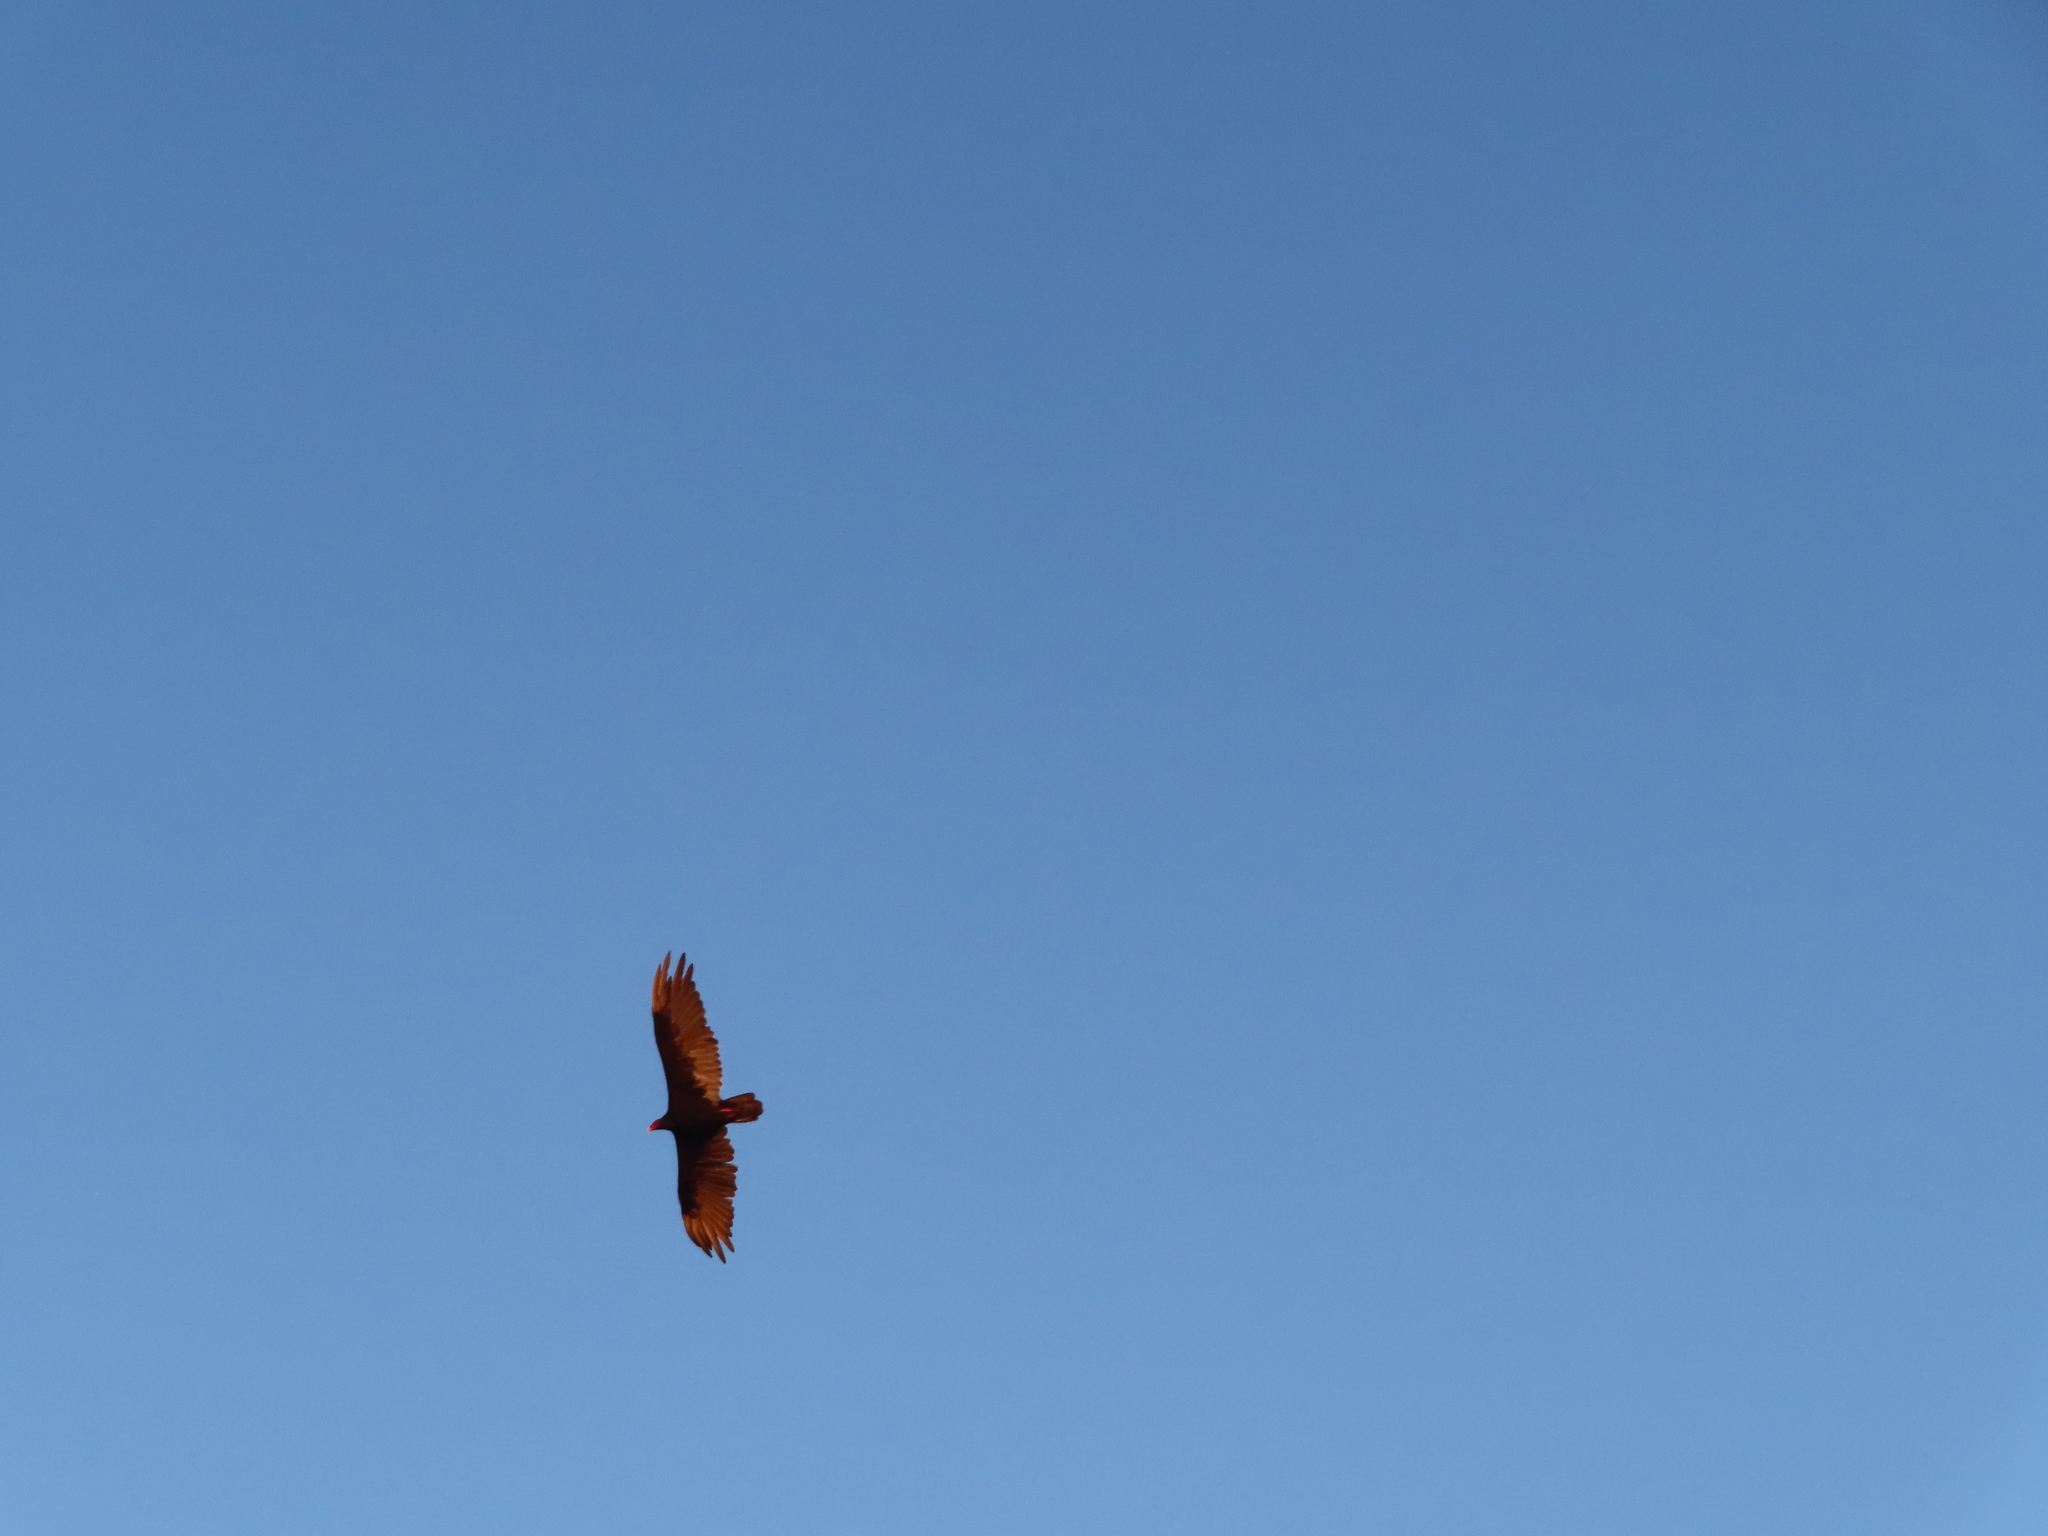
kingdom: Animalia
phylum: Chordata
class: Aves
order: Accipitriformes
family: Cathartidae
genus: Cathartes
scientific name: Cathartes aura
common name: Turkey vulture
